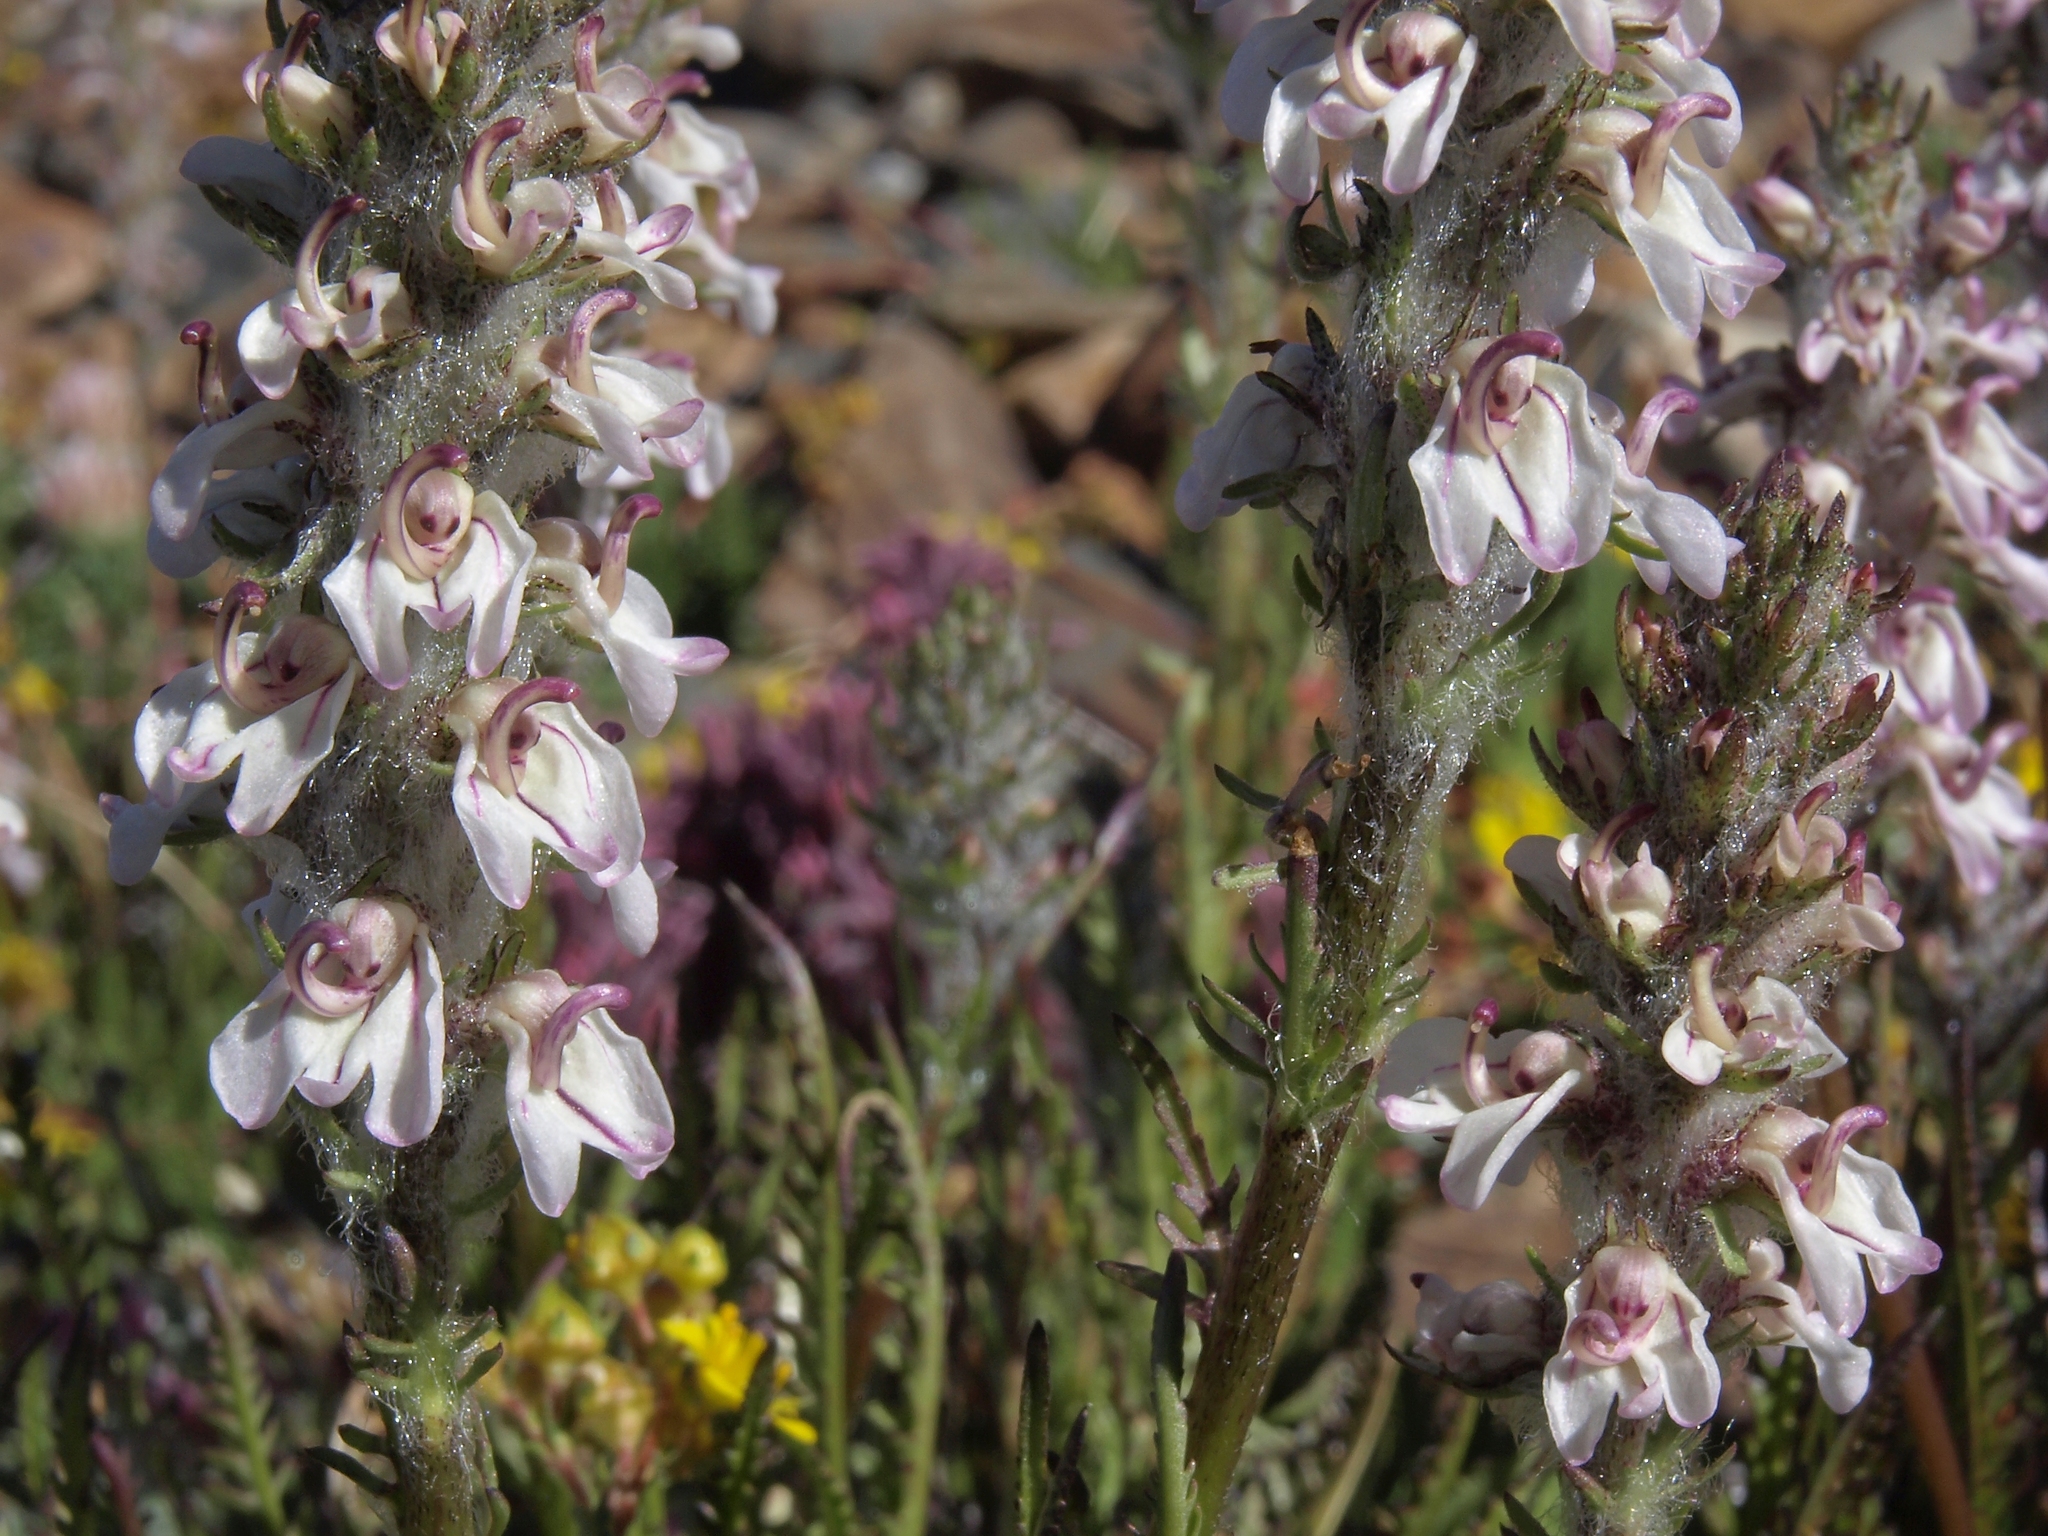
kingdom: Plantae
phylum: Tracheophyta
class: Magnoliopsida
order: Lamiales
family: Orobanchaceae
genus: Pedicularis
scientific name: Pedicularis attollens
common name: Slender pedicularis
